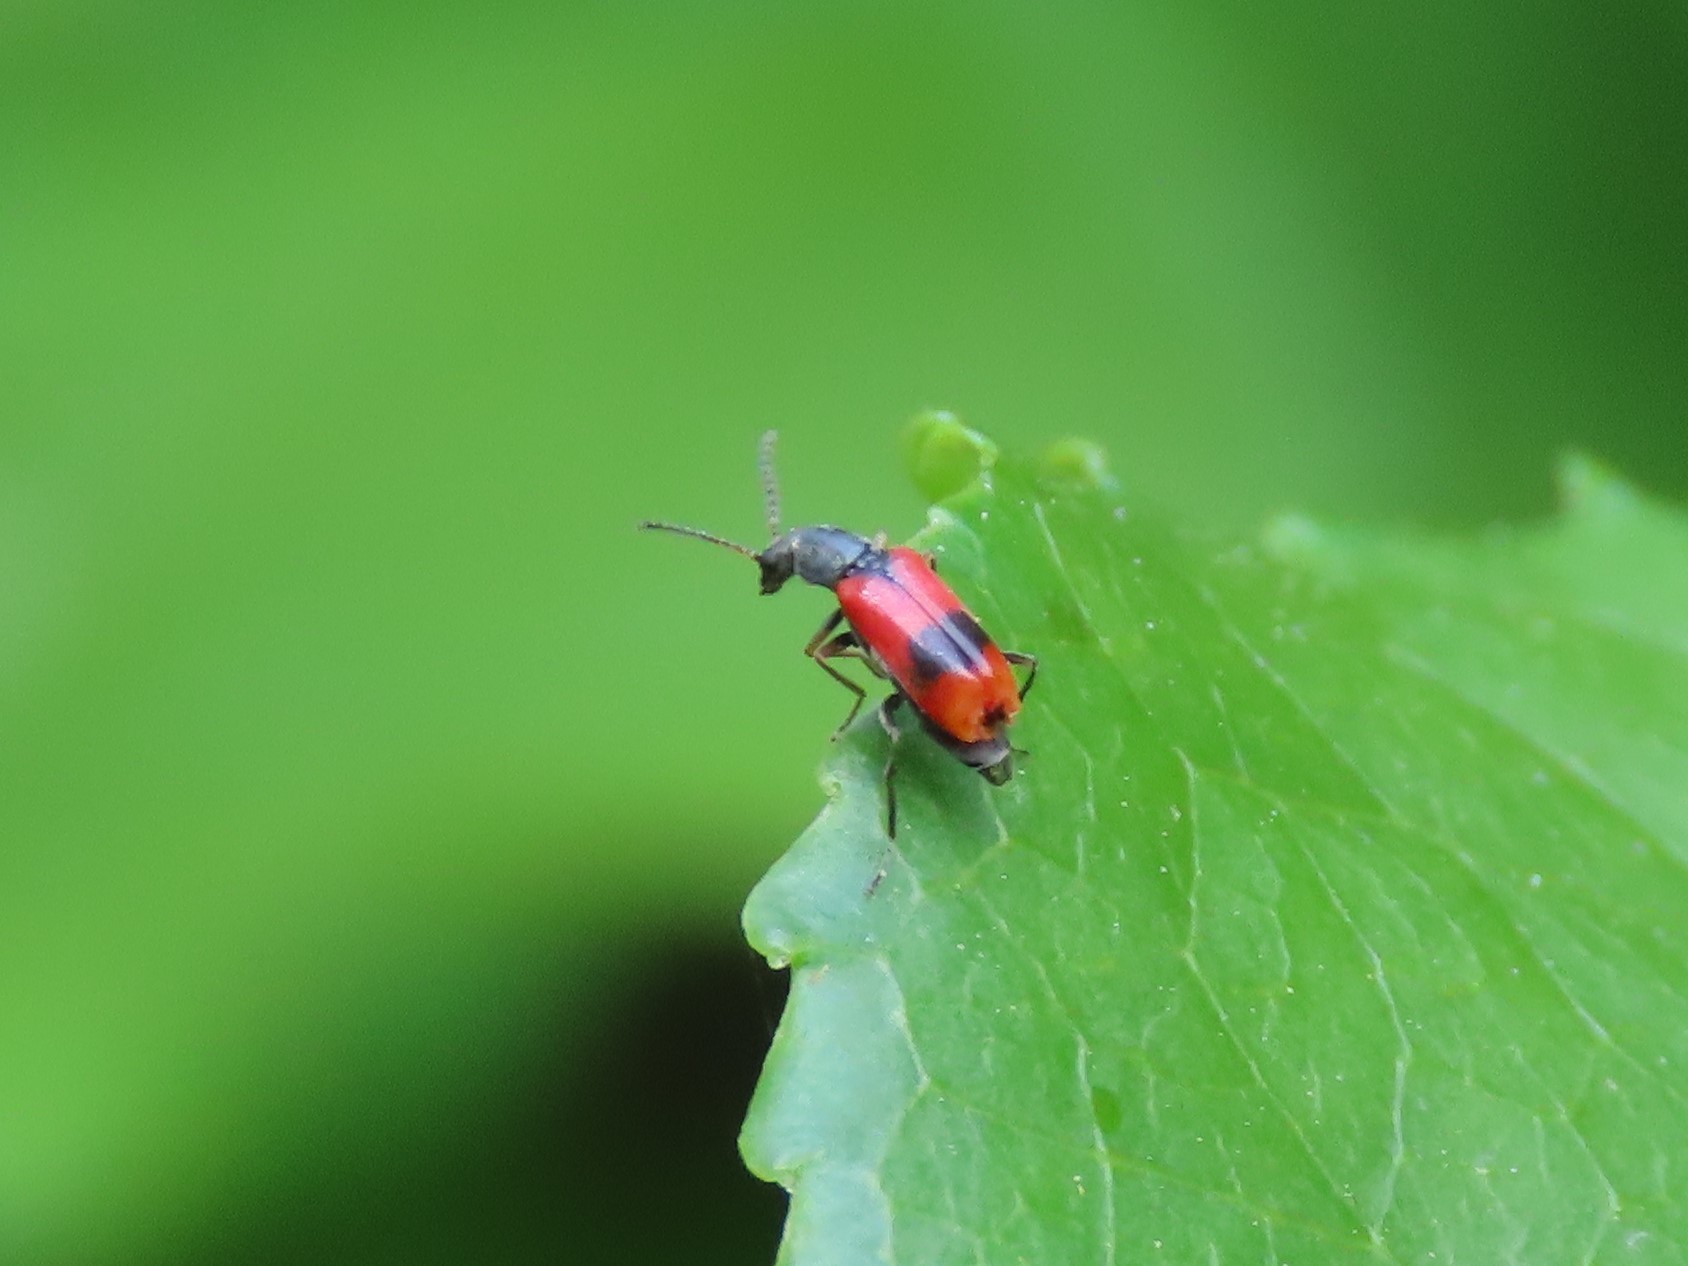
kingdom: Animalia
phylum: Arthropoda
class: Insecta
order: Coleoptera
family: Melyridae
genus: Anthocomus
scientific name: Anthocomus equestris
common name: Black-banded soft-winged flower beetle
